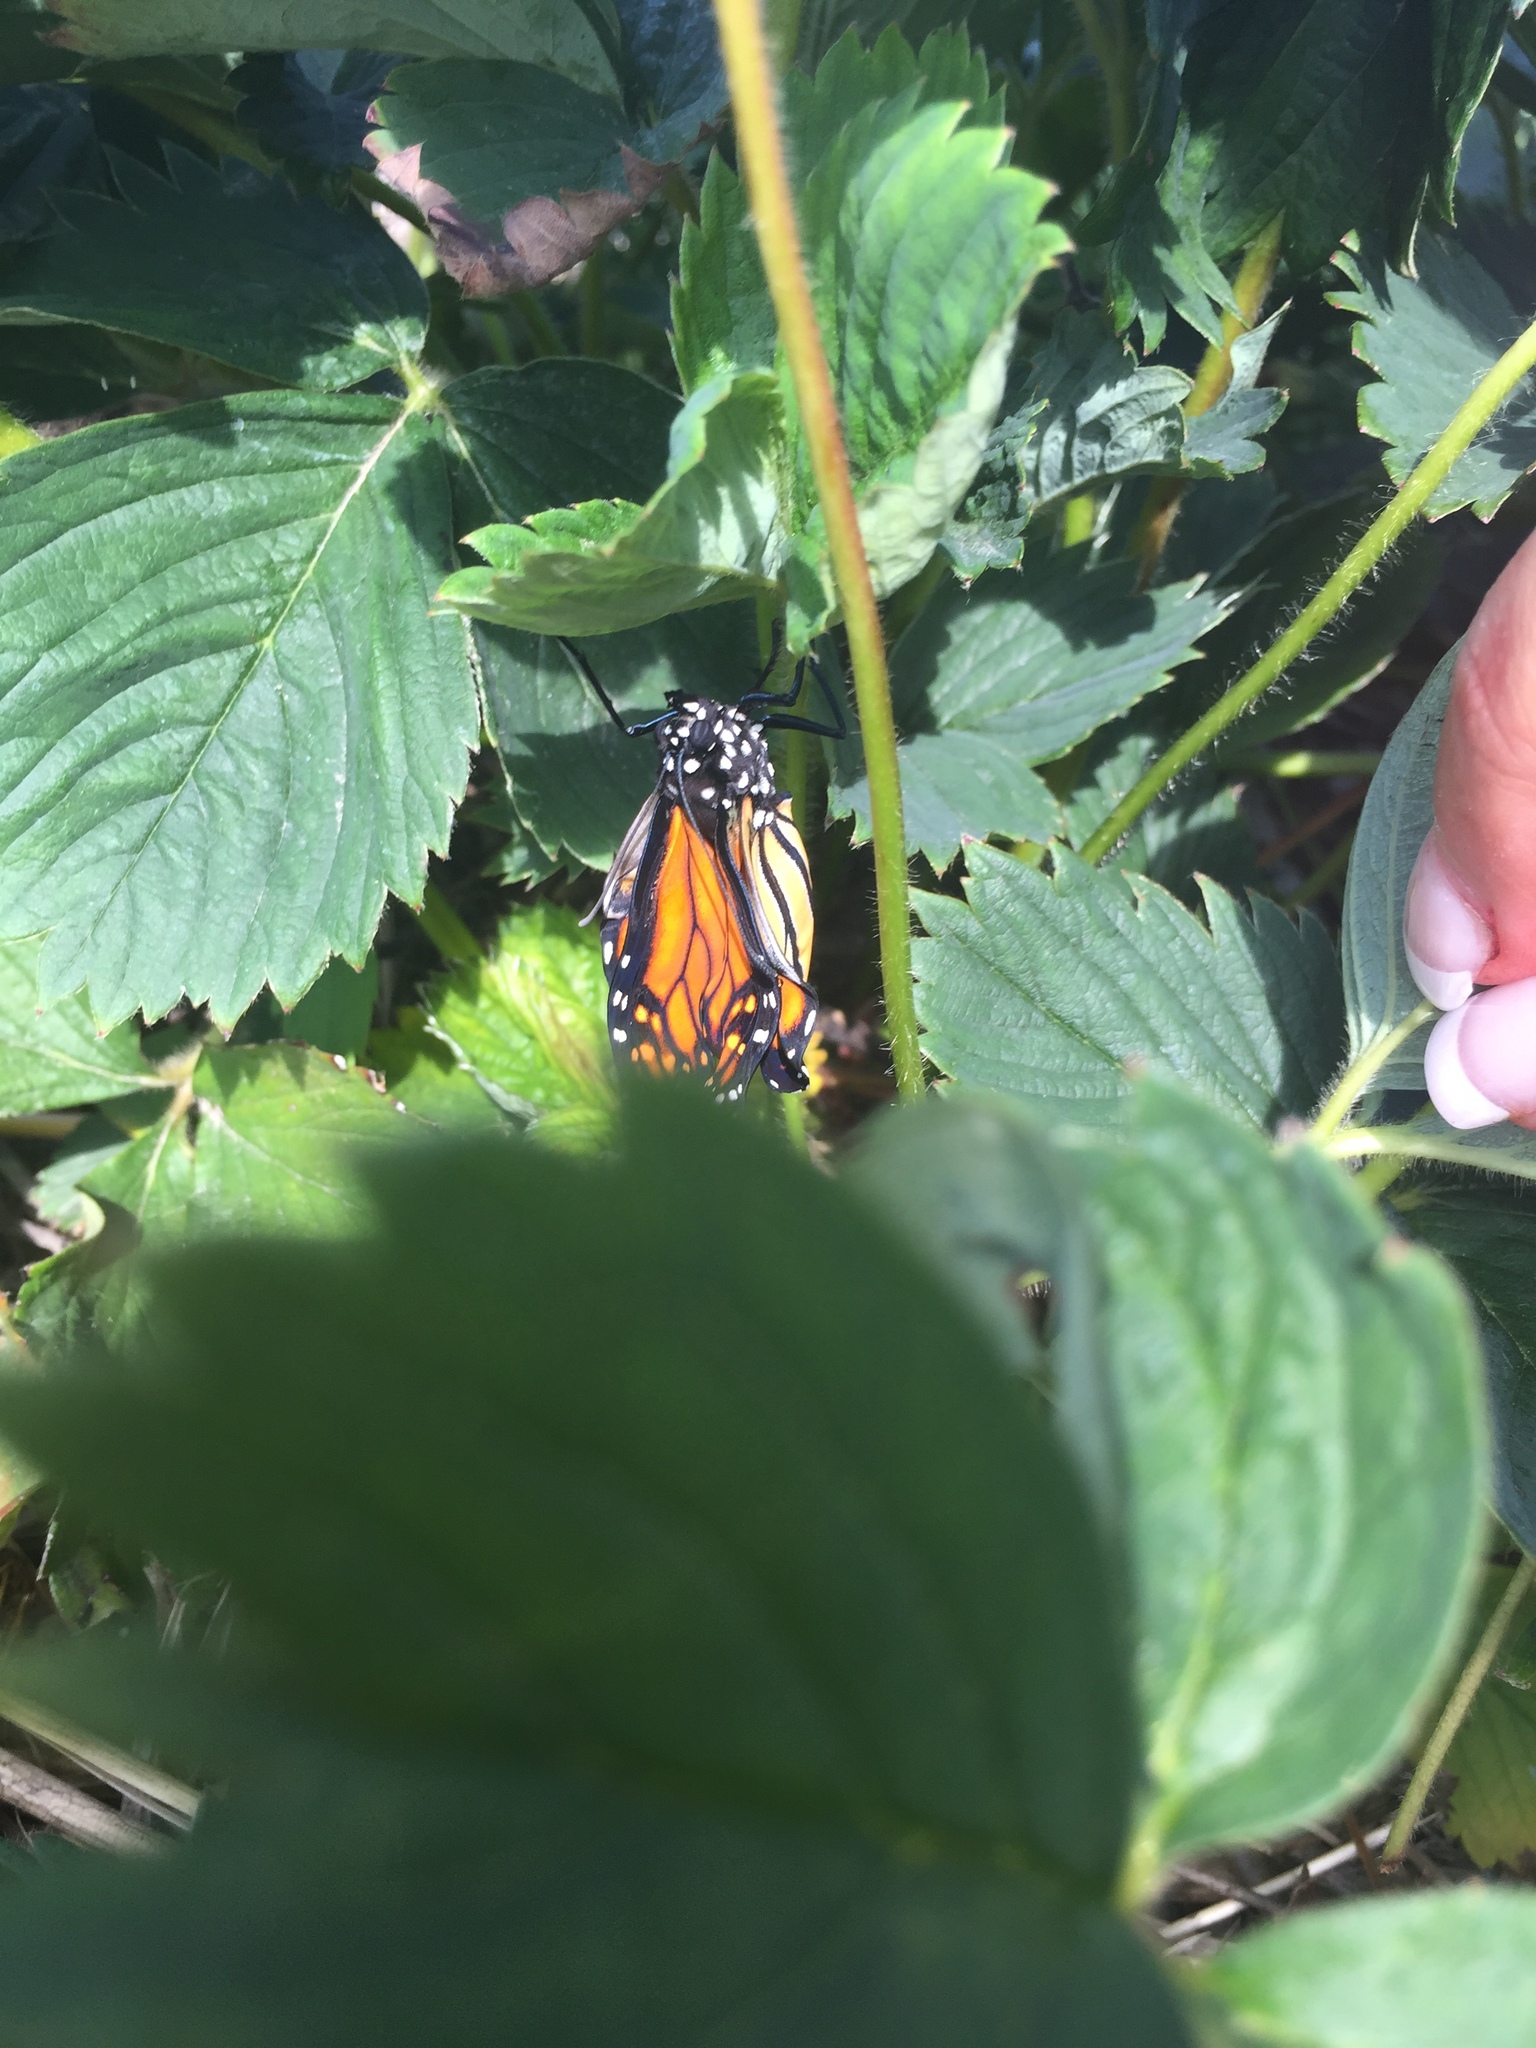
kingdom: Animalia
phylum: Arthropoda
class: Insecta
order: Lepidoptera
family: Nymphalidae
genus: Danaus
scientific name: Danaus plexippus
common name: Monarch
